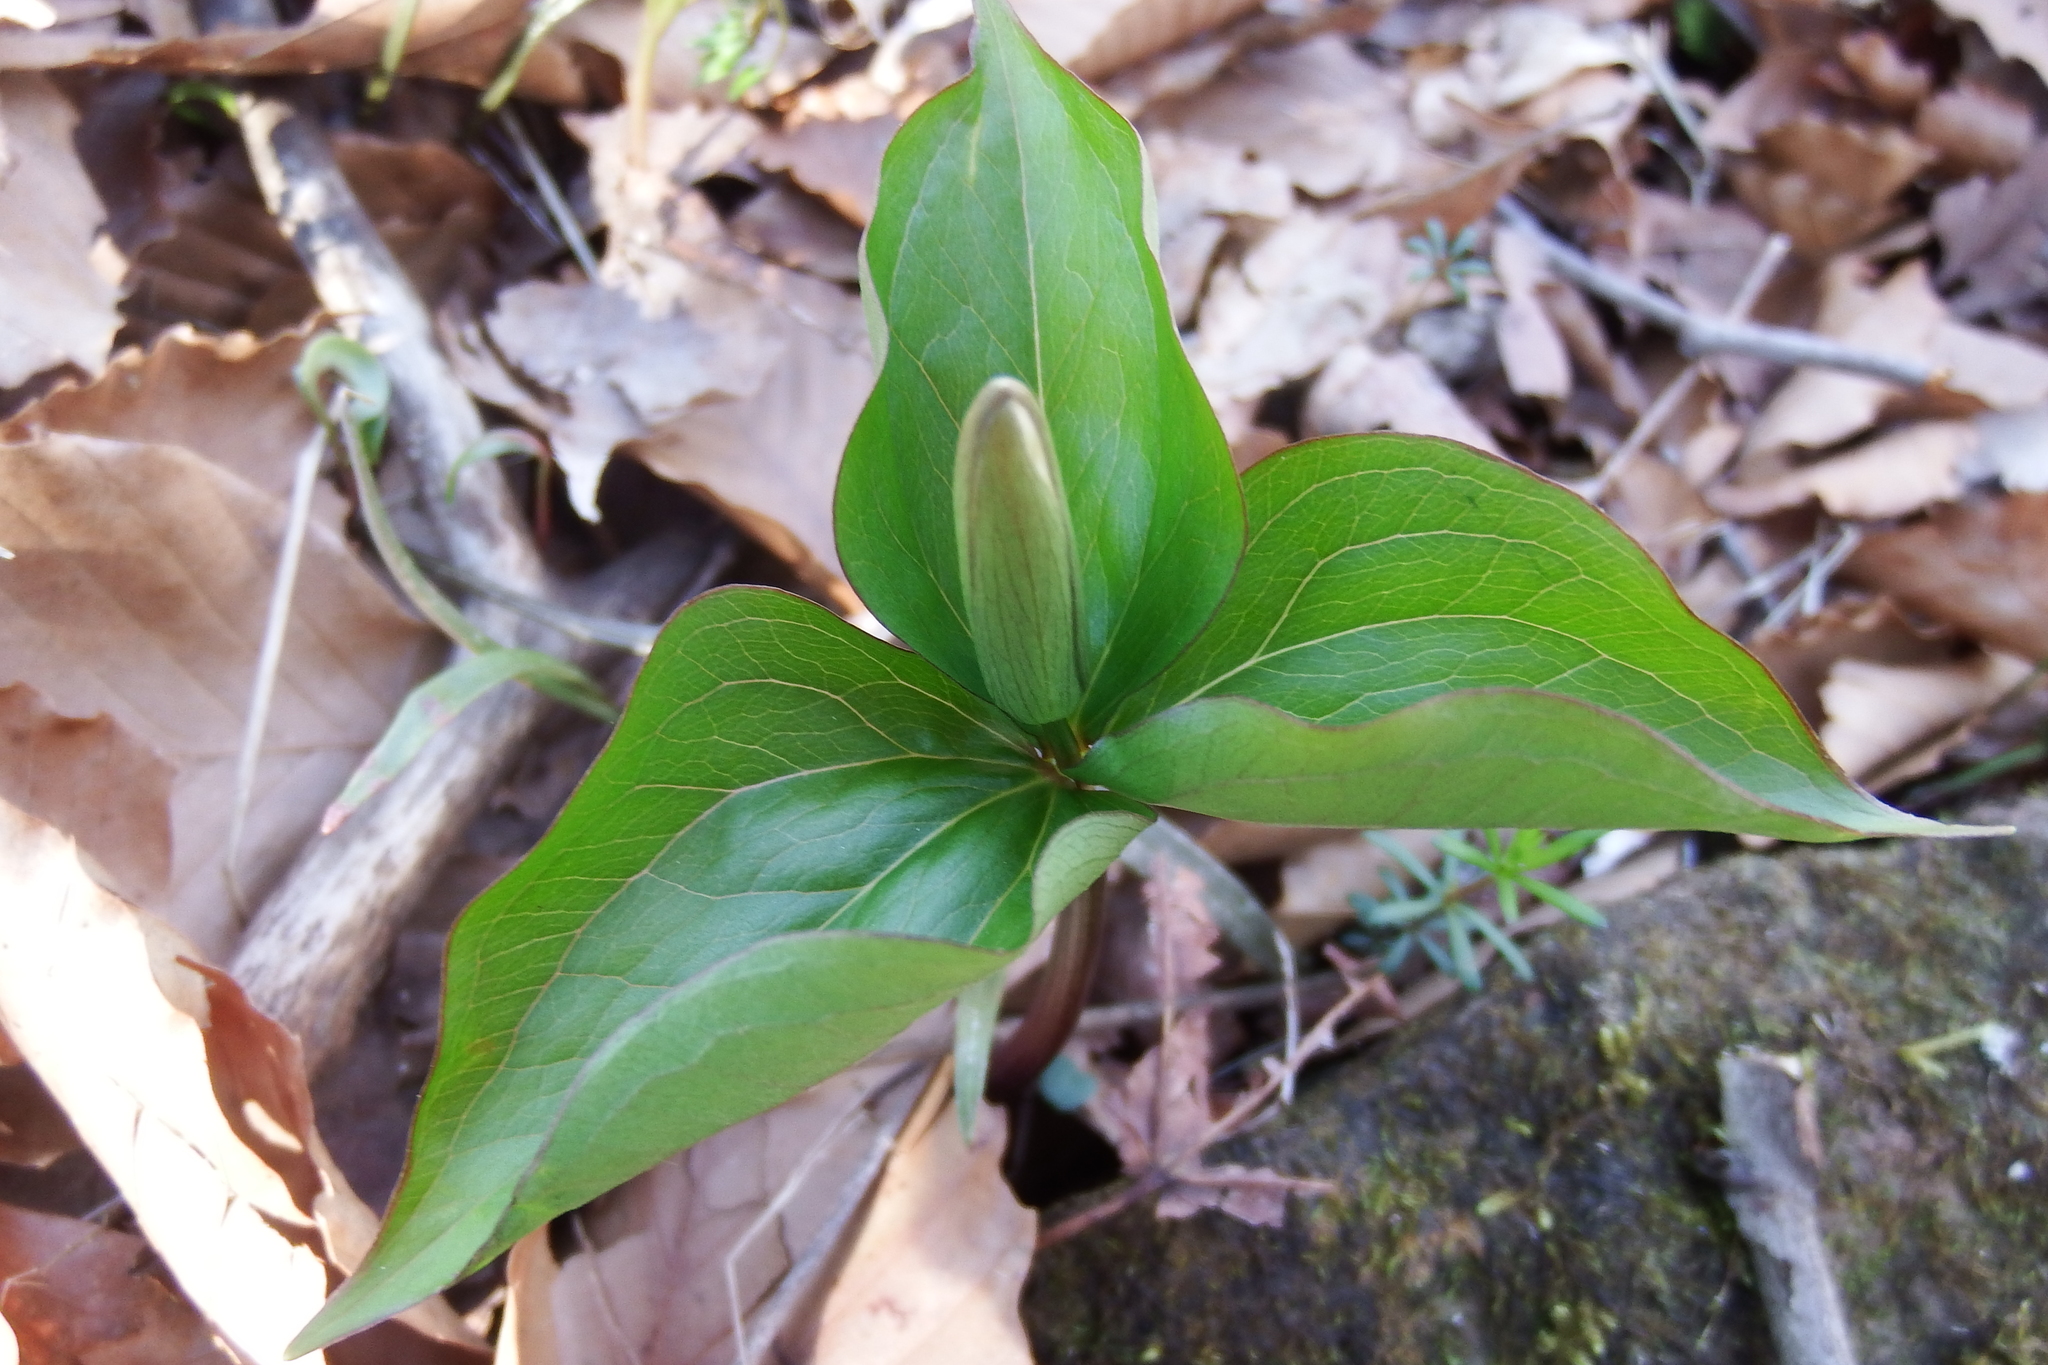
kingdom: Plantae
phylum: Tracheophyta
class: Liliopsida
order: Liliales
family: Melanthiaceae
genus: Trillium
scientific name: Trillium grandiflorum
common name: Great white trillium
